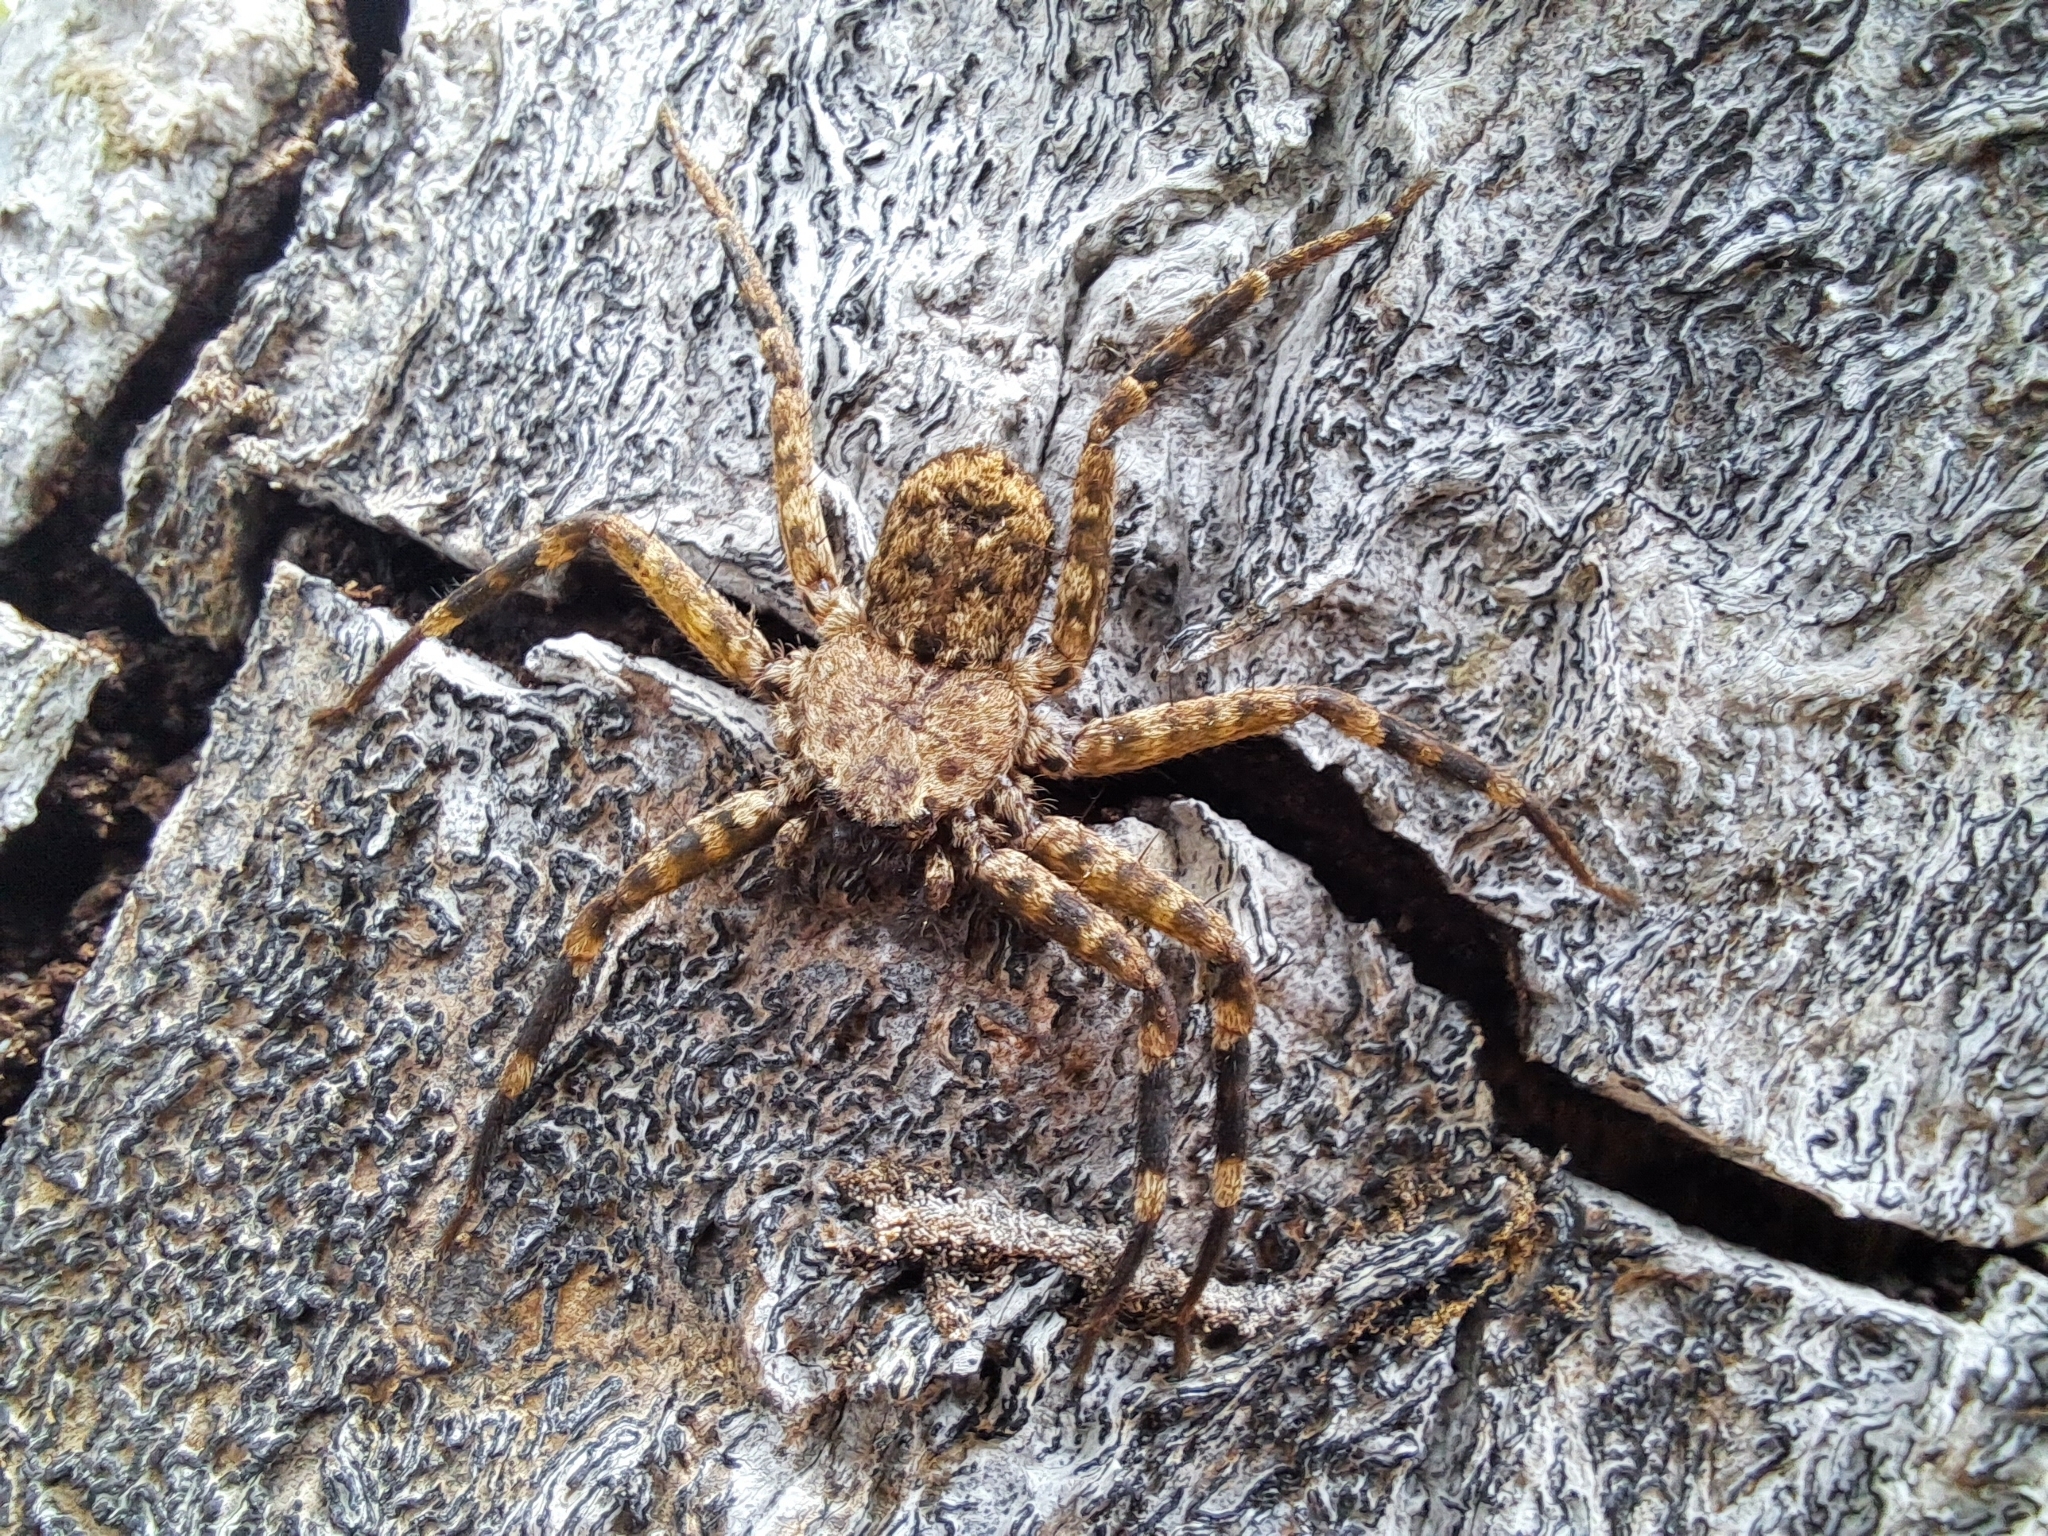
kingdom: Animalia
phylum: Arthropoda
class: Arachnida
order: Araneae
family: Selenopidae
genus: Selenops
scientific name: Selenops mexicanus
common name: Wall crab spiders
